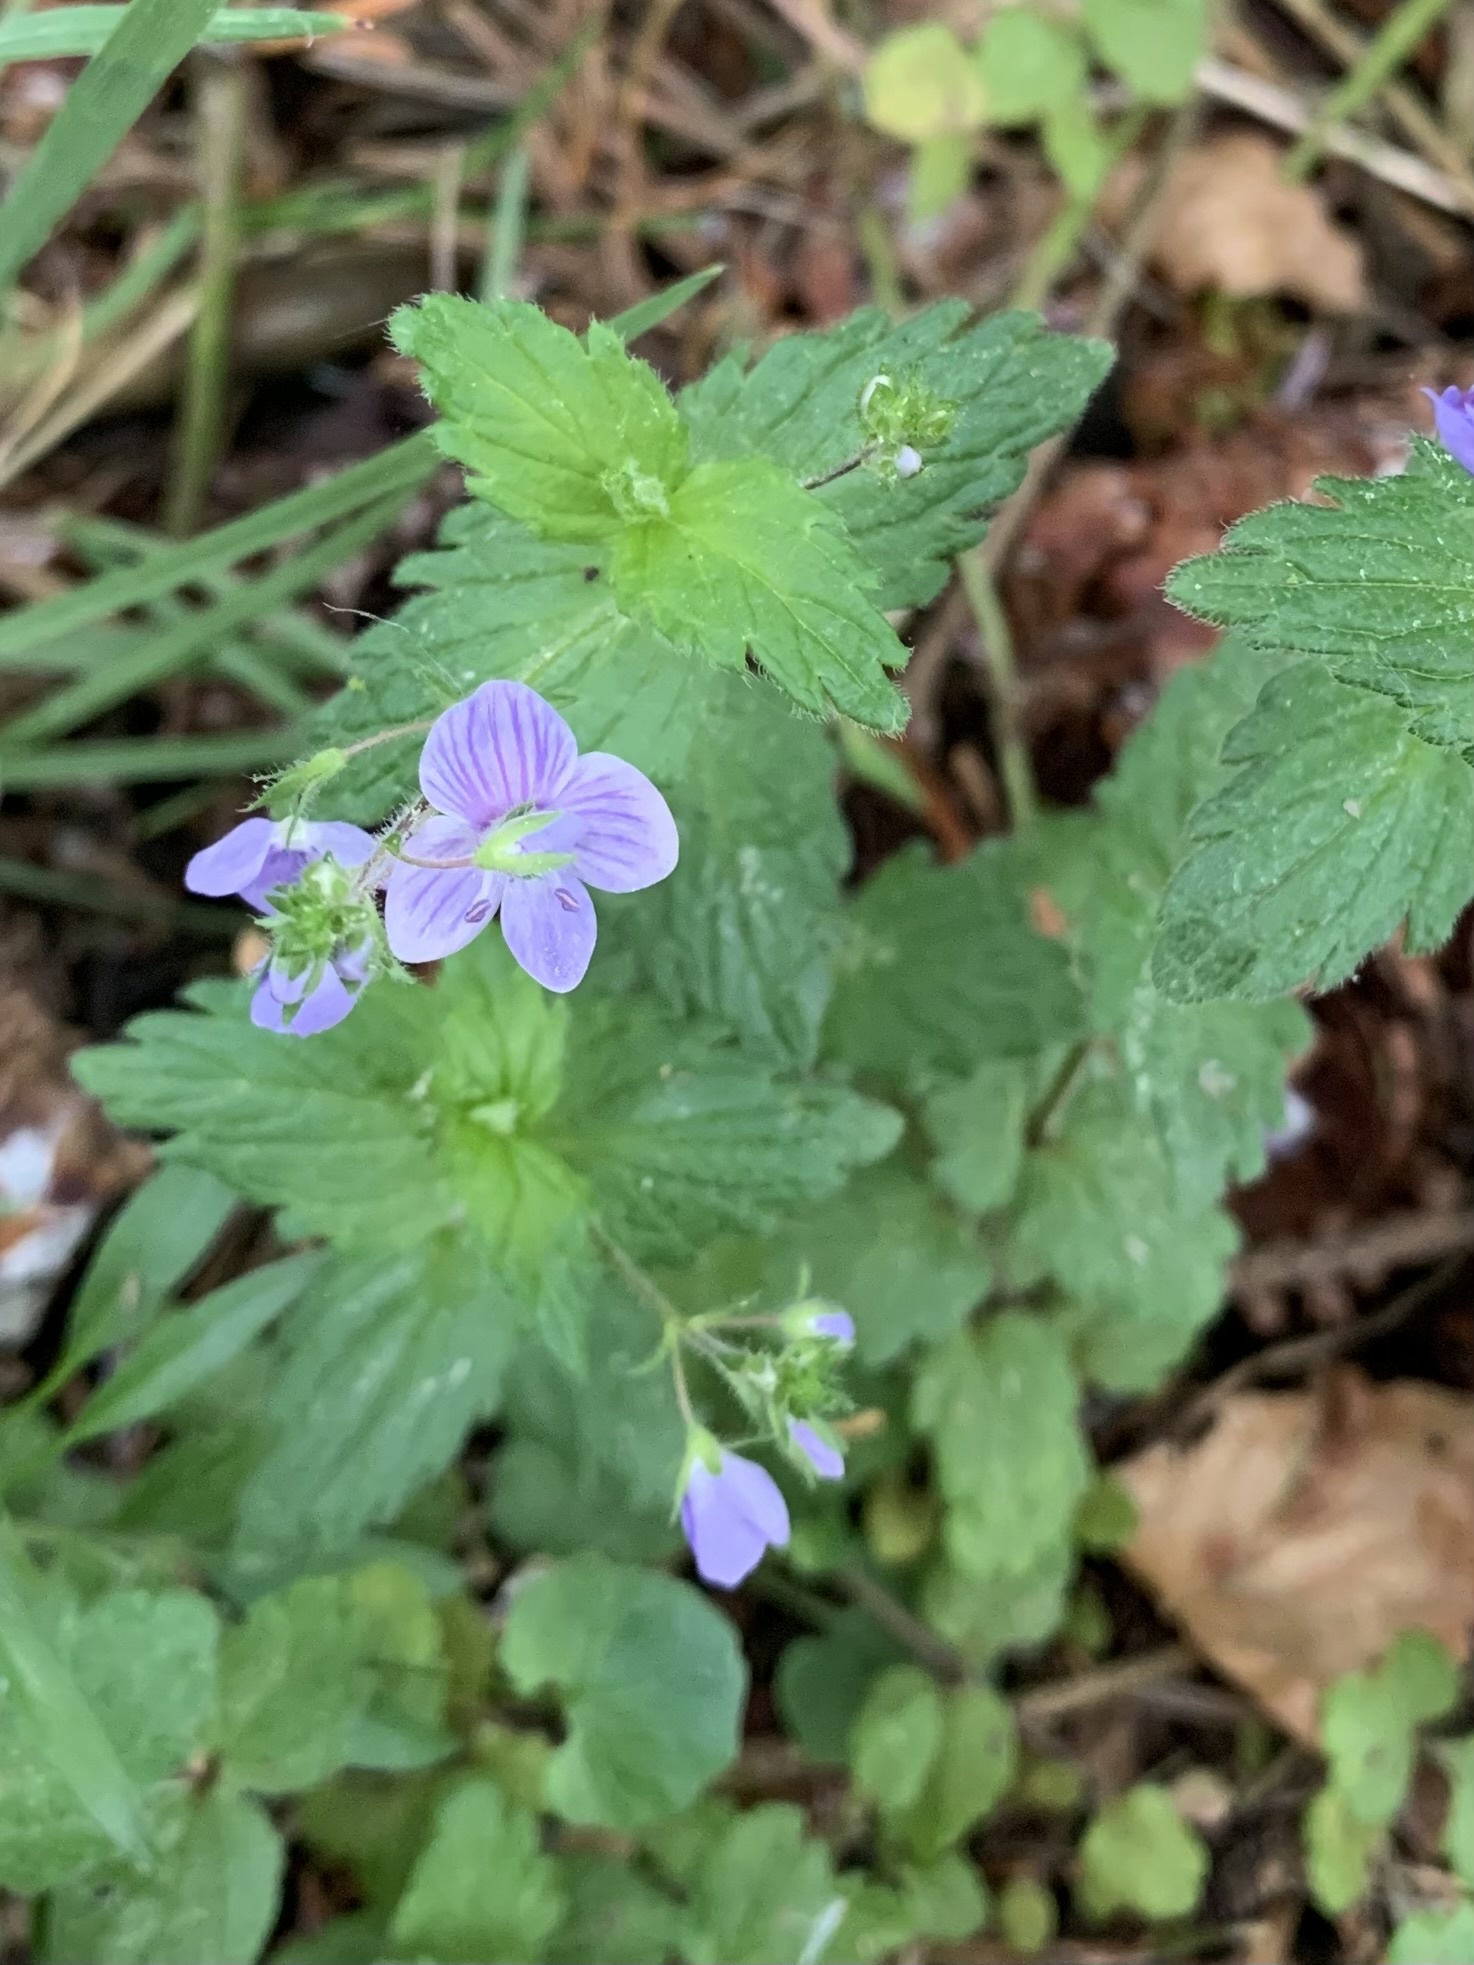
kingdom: Plantae
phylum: Tracheophyta
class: Magnoliopsida
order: Lamiales
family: Plantaginaceae
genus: Veronica
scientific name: Veronica chamaedrys
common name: Germander speedwell
